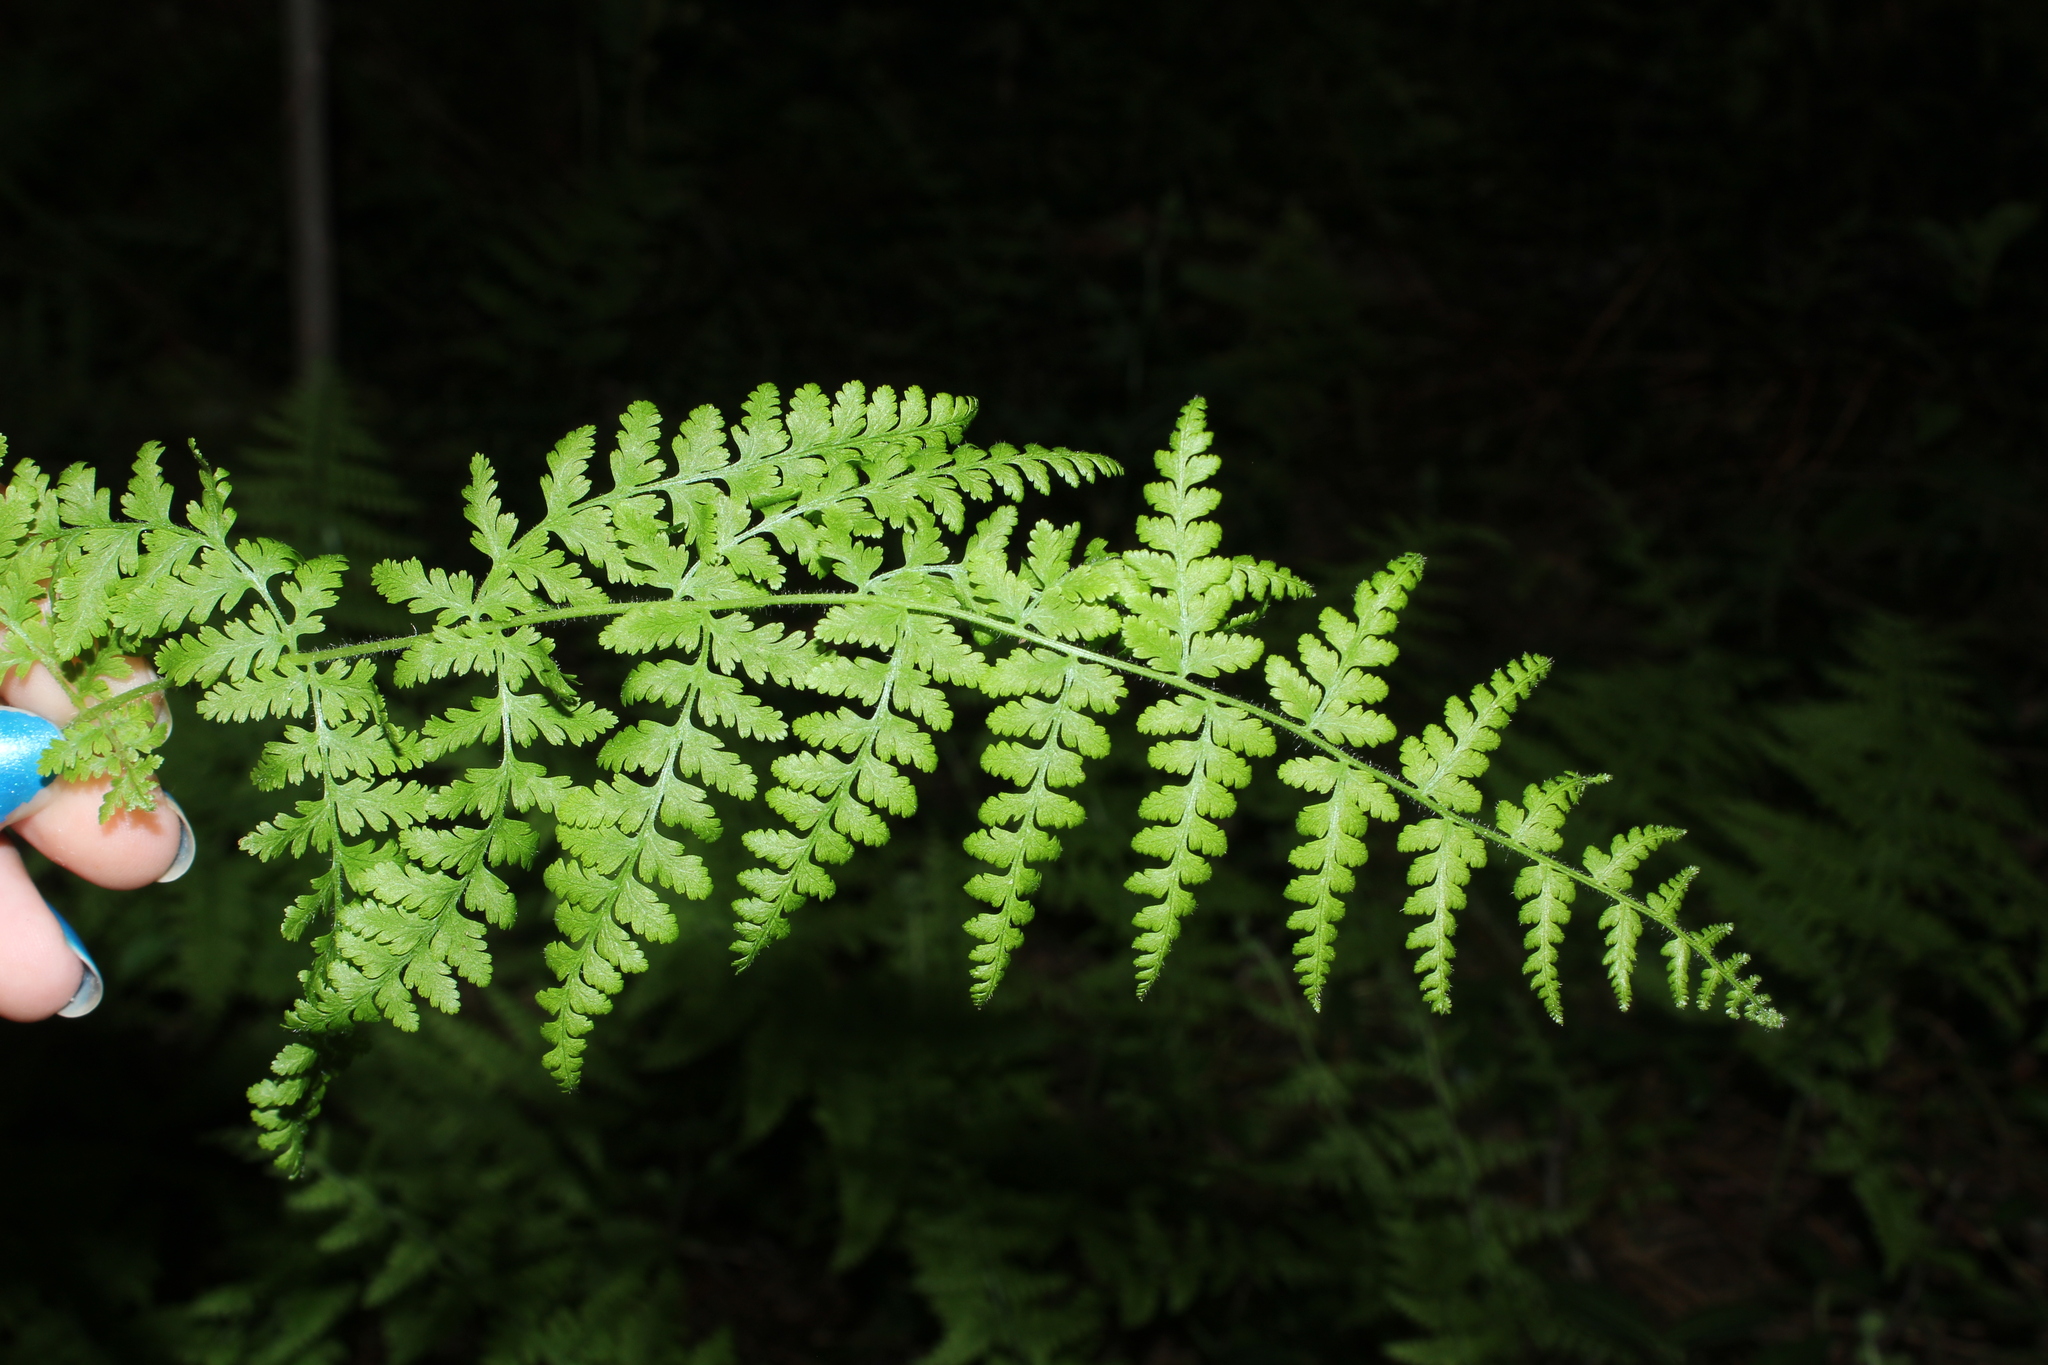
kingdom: Plantae
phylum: Tracheophyta
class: Polypodiopsida
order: Polypodiales
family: Dennstaedtiaceae
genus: Sitobolium
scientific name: Sitobolium punctilobum
